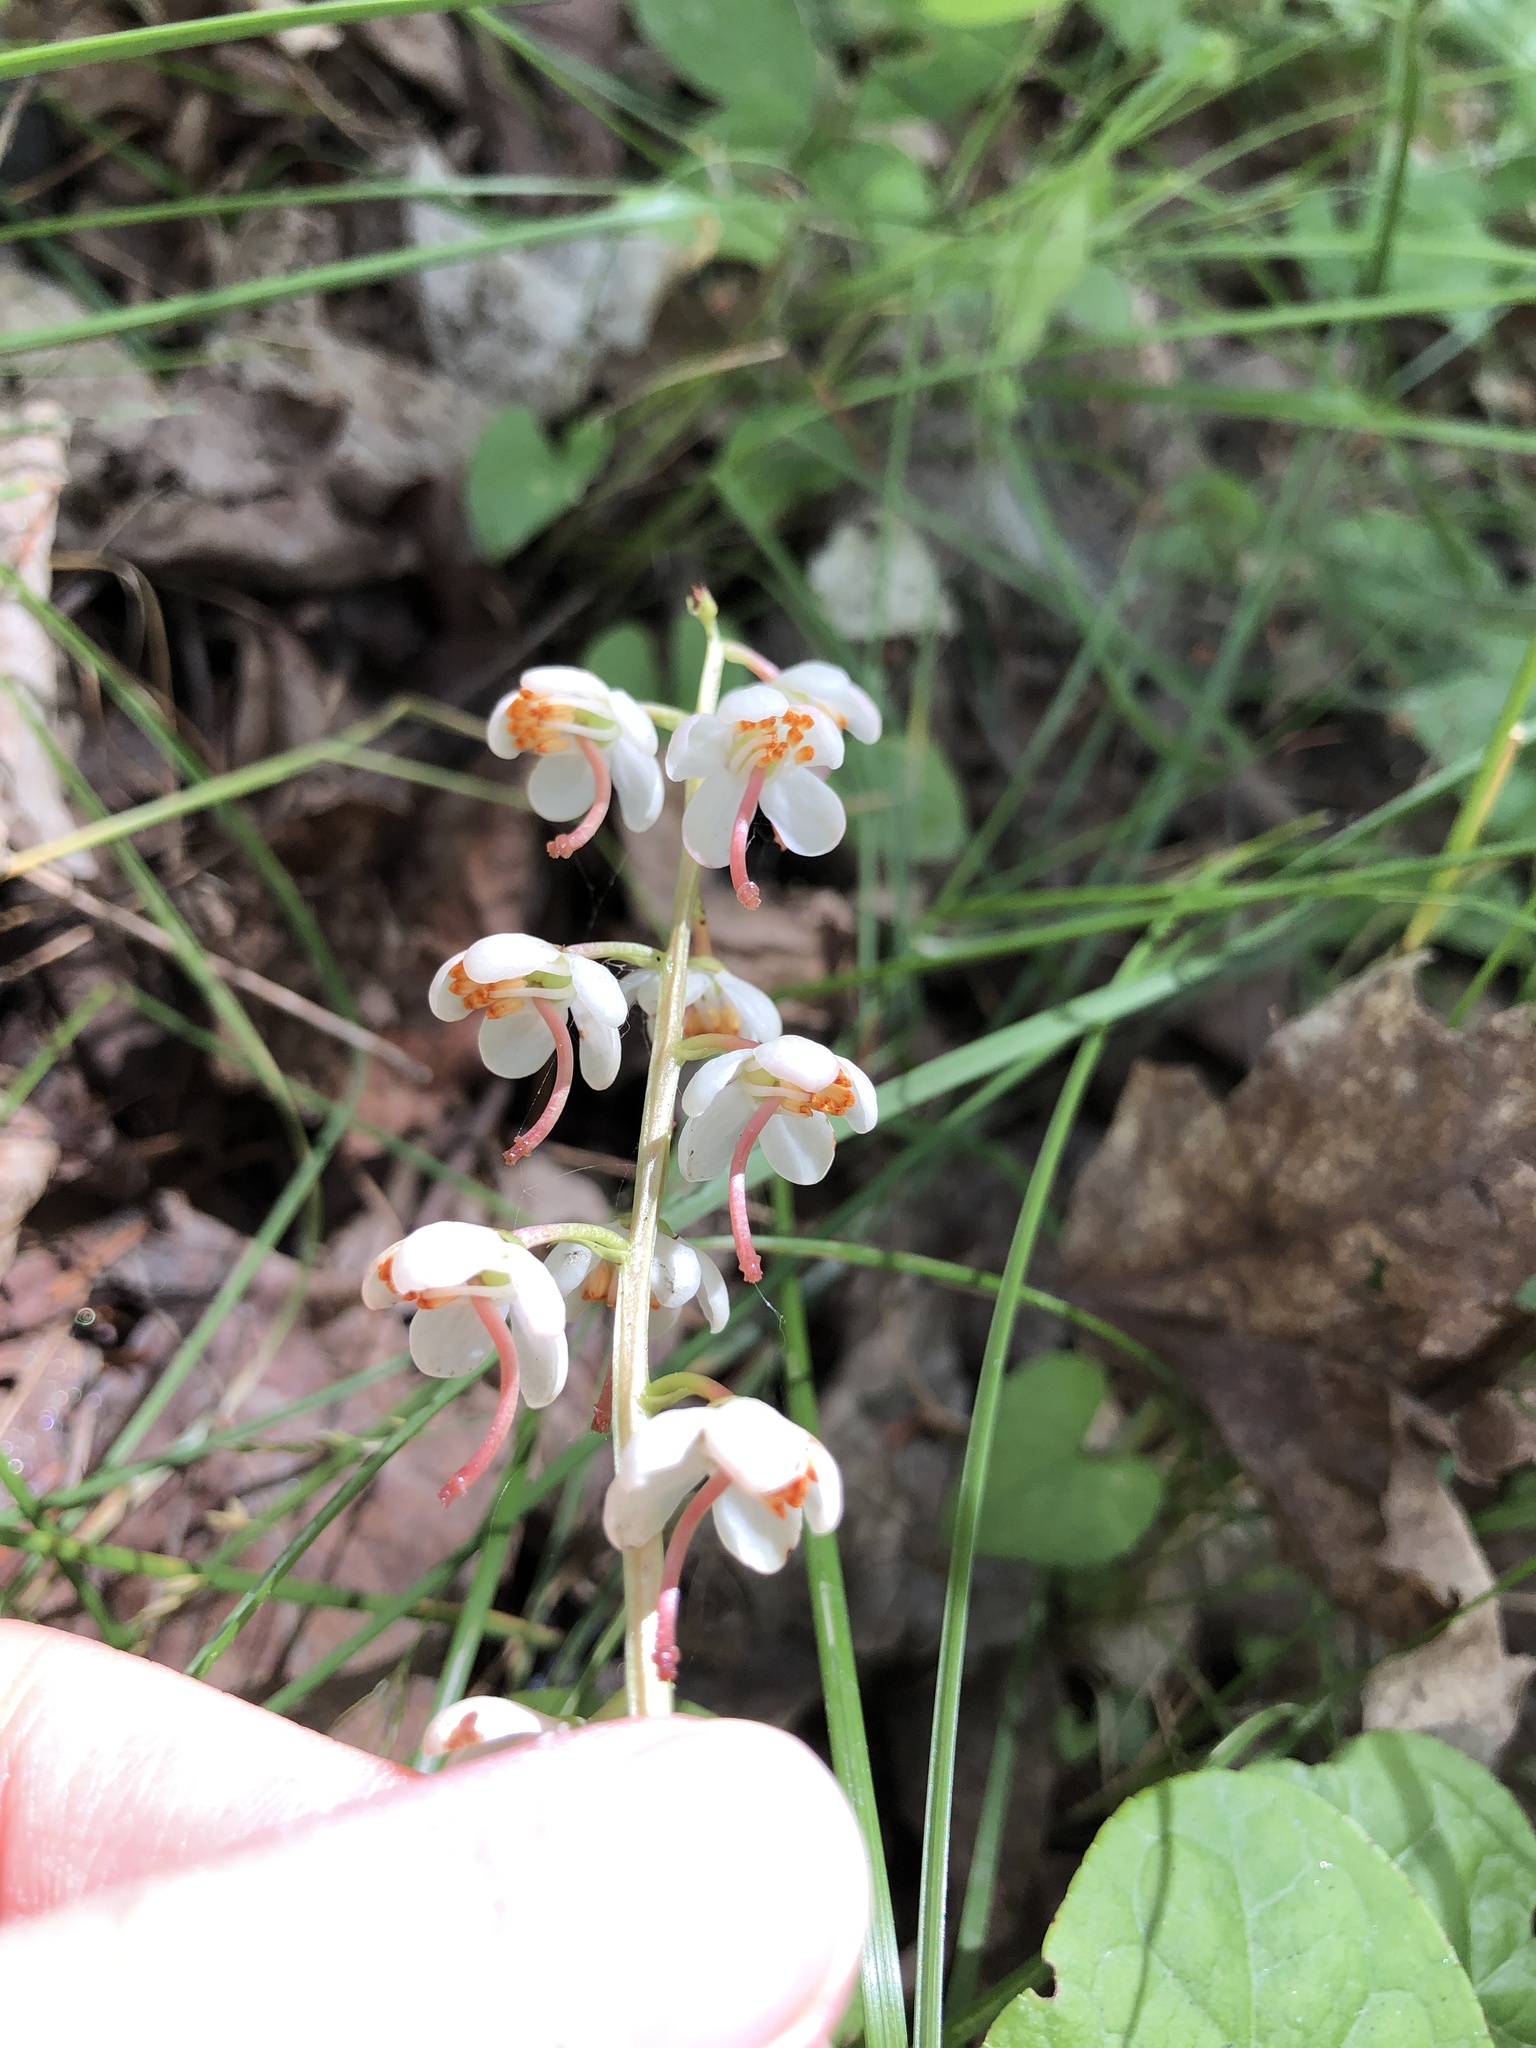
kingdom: Plantae
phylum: Tracheophyta
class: Magnoliopsida
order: Ericales
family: Ericaceae
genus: Pyrola
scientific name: Pyrola elliptica
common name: Shinleaf
